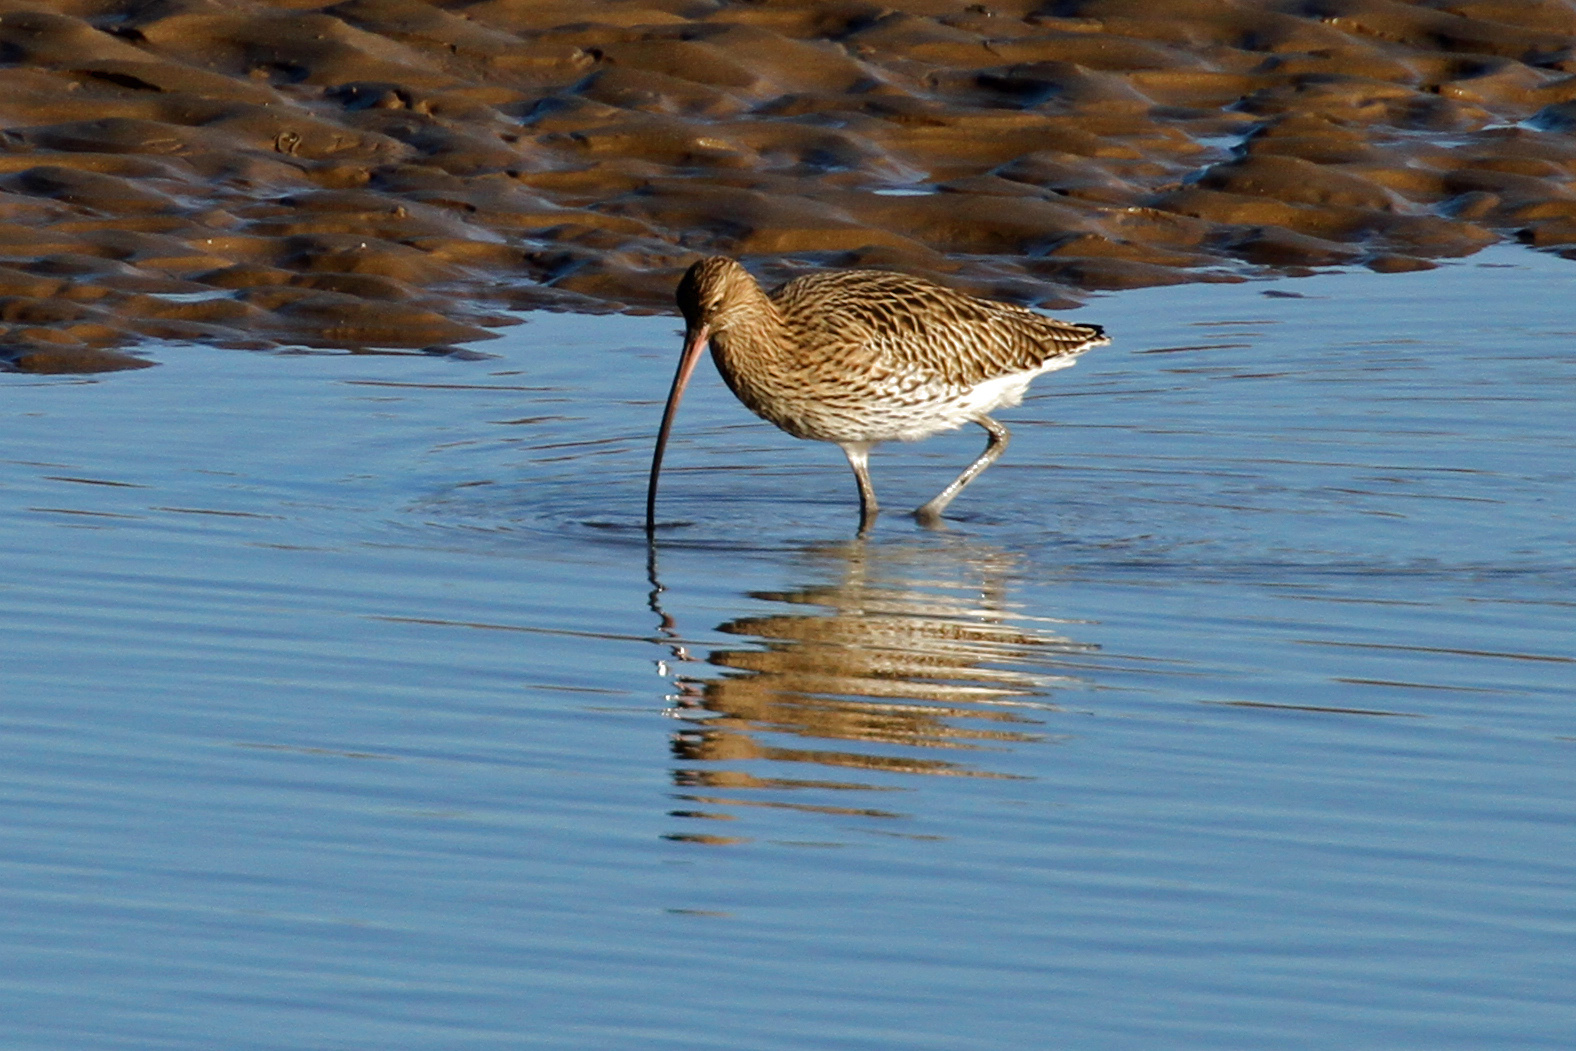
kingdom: Animalia
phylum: Chordata
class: Aves
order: Charadriiformes
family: Scolopacidae
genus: Numenius
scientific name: Numenius arquata
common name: Eurasian curlew
